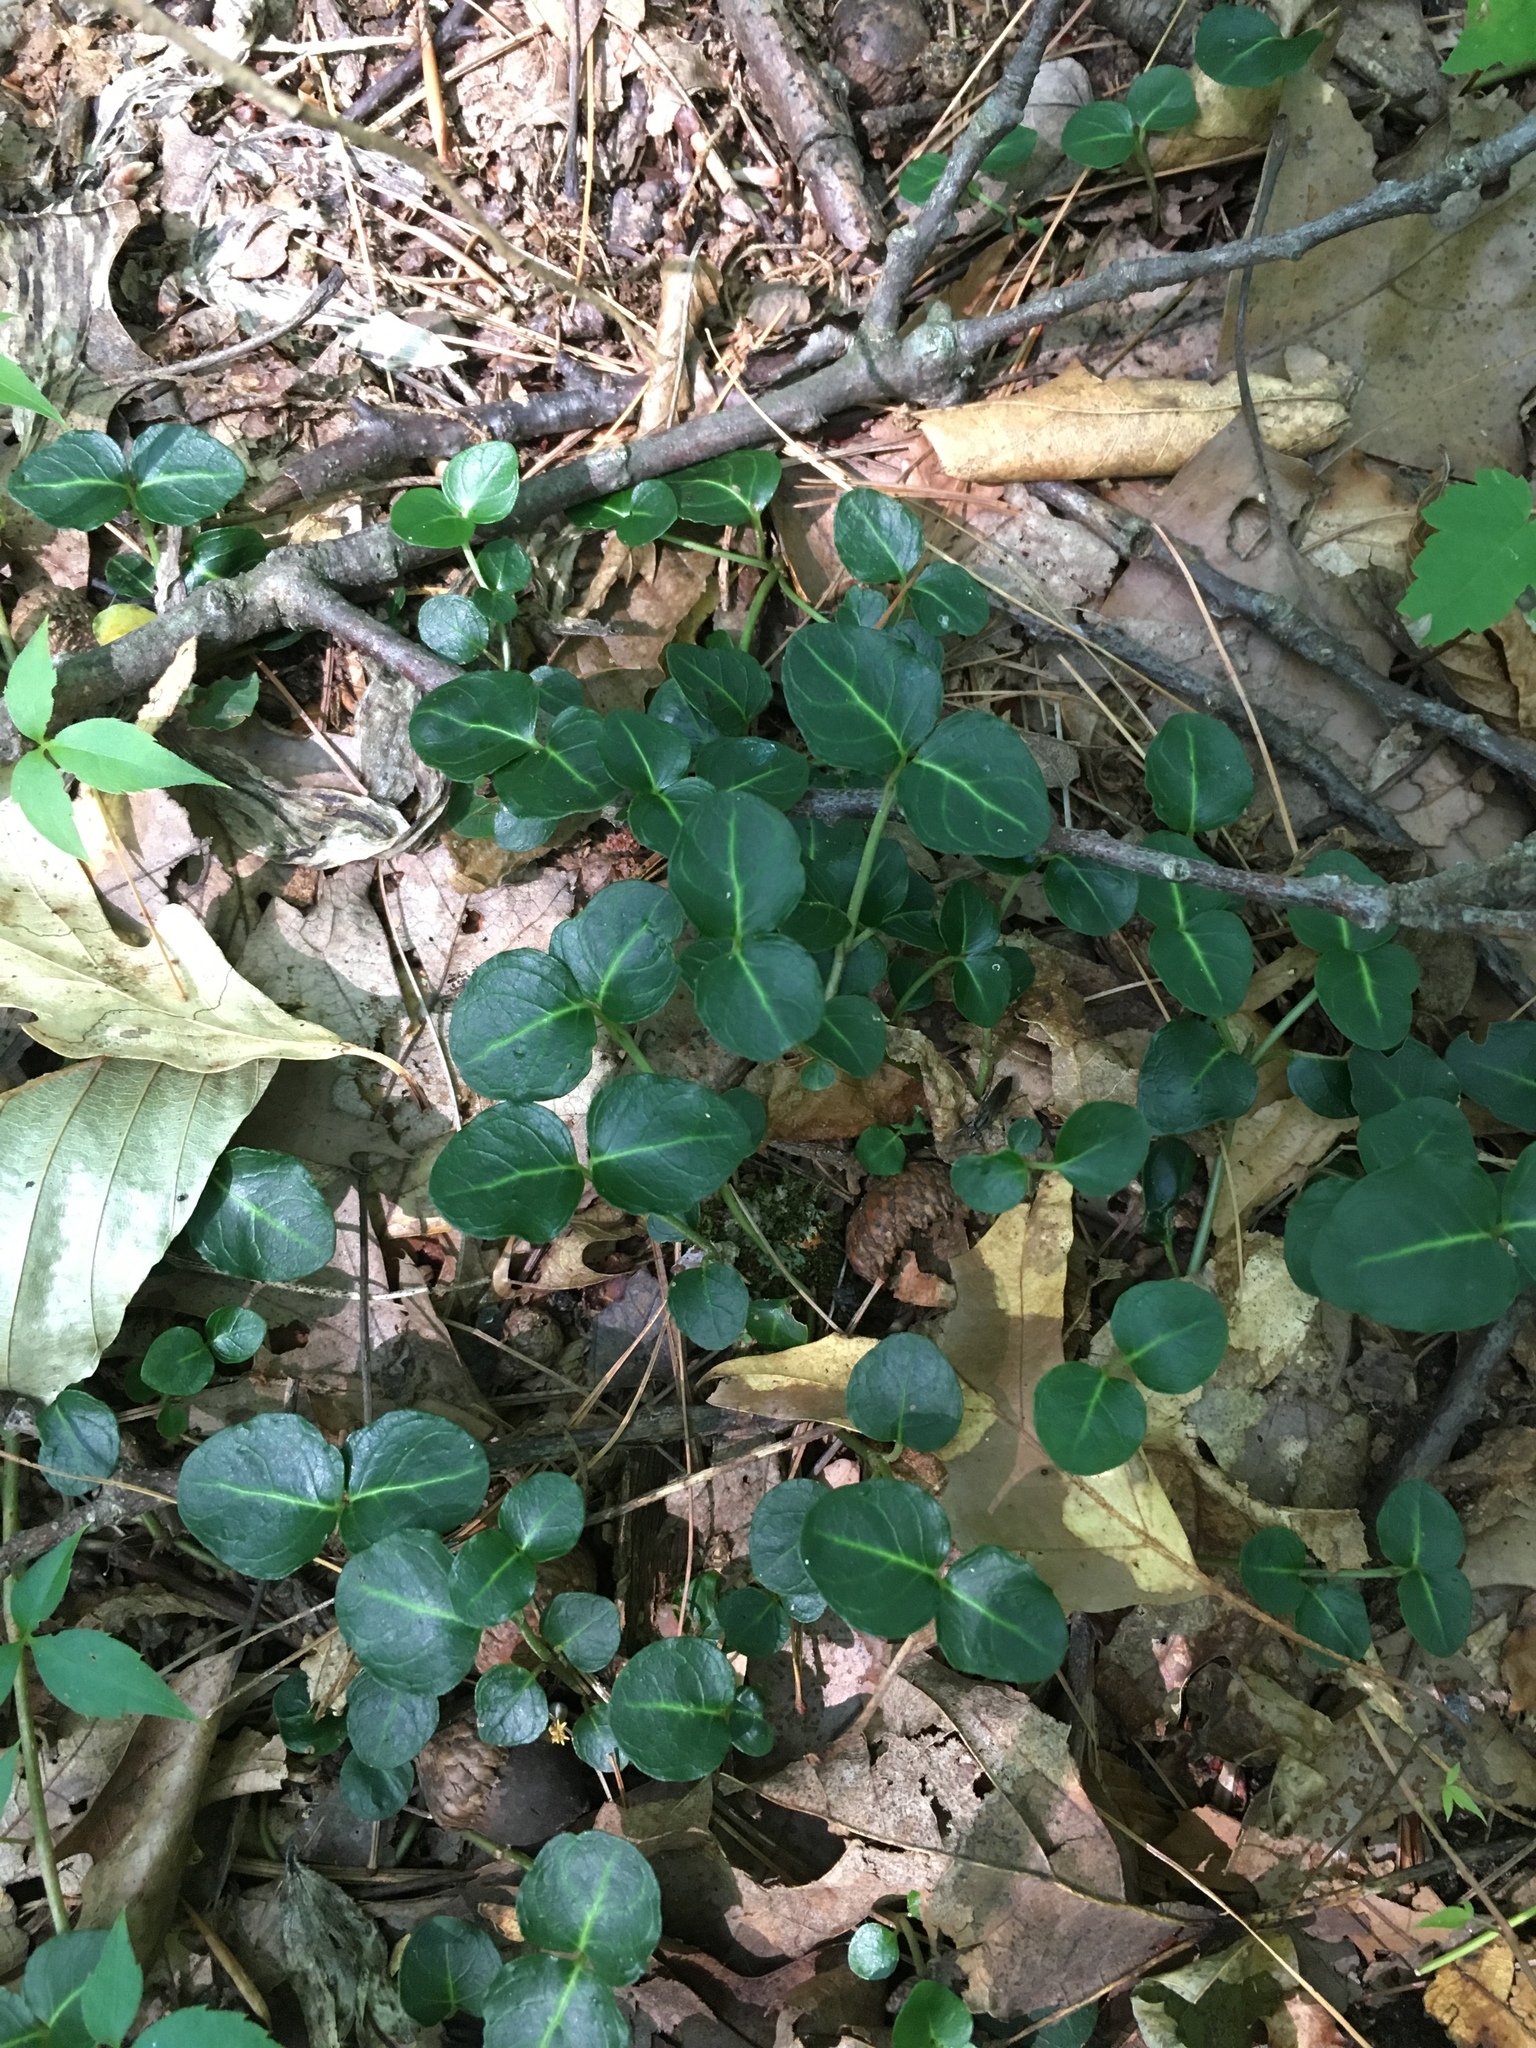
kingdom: Plantae
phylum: Tracheophyta
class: Magnoliopsida
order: Gentianales
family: Rubiaceae
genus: Mitchella
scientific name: Mitchella repens
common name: Partridge-berry
